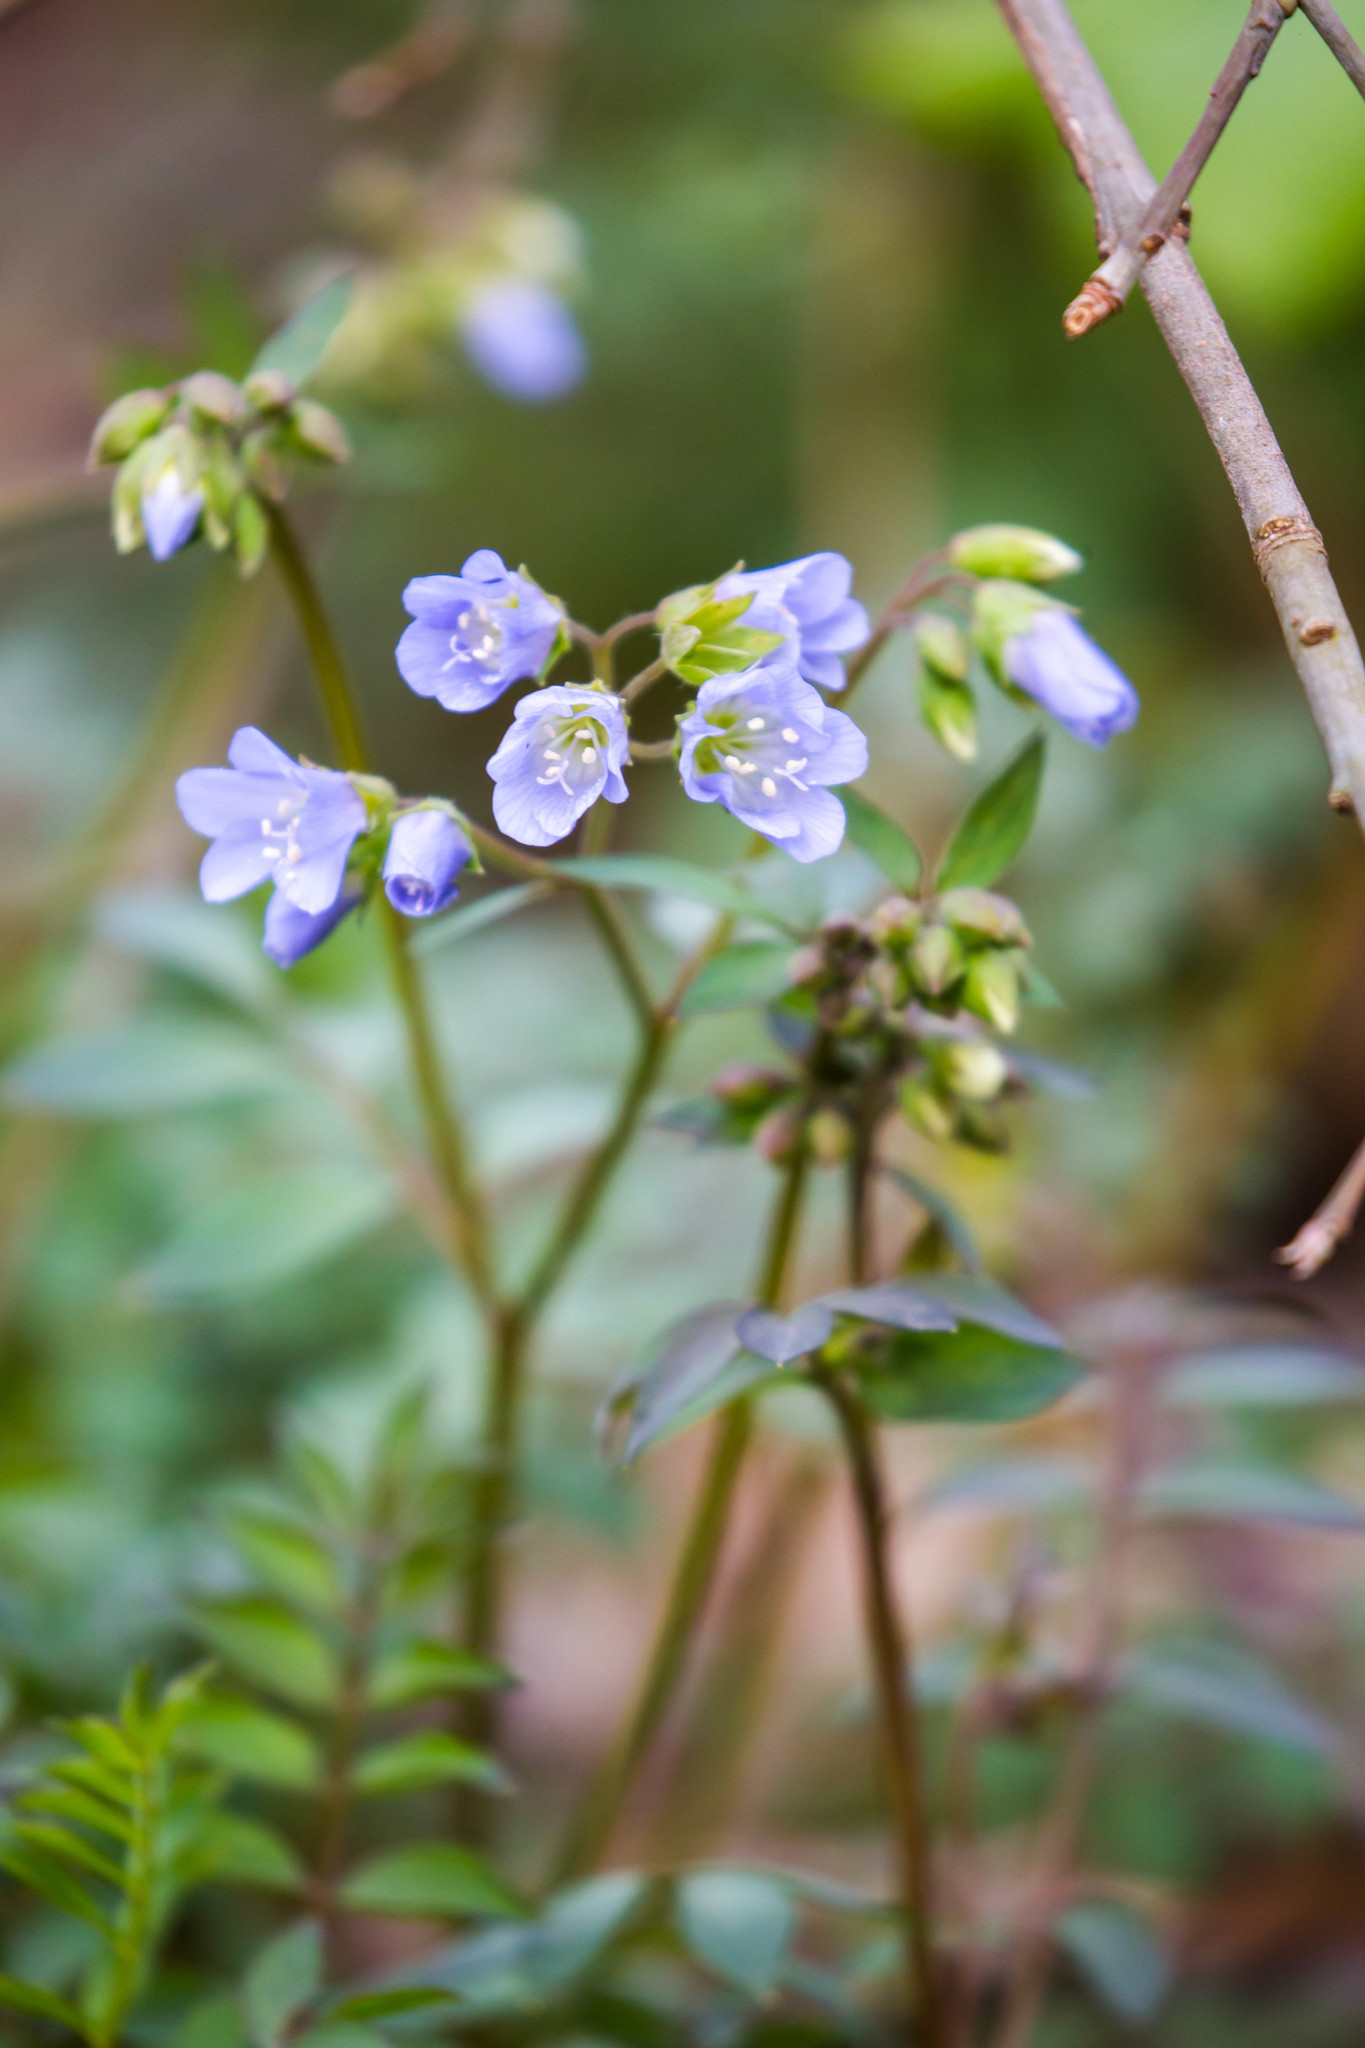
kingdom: Plantae
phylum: Tracheophyta
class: Magnoliopsida
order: Ericales
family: Polemoniaceae
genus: Polemonium
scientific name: Polemonium reptans
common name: Creeping jacob's-ladder
